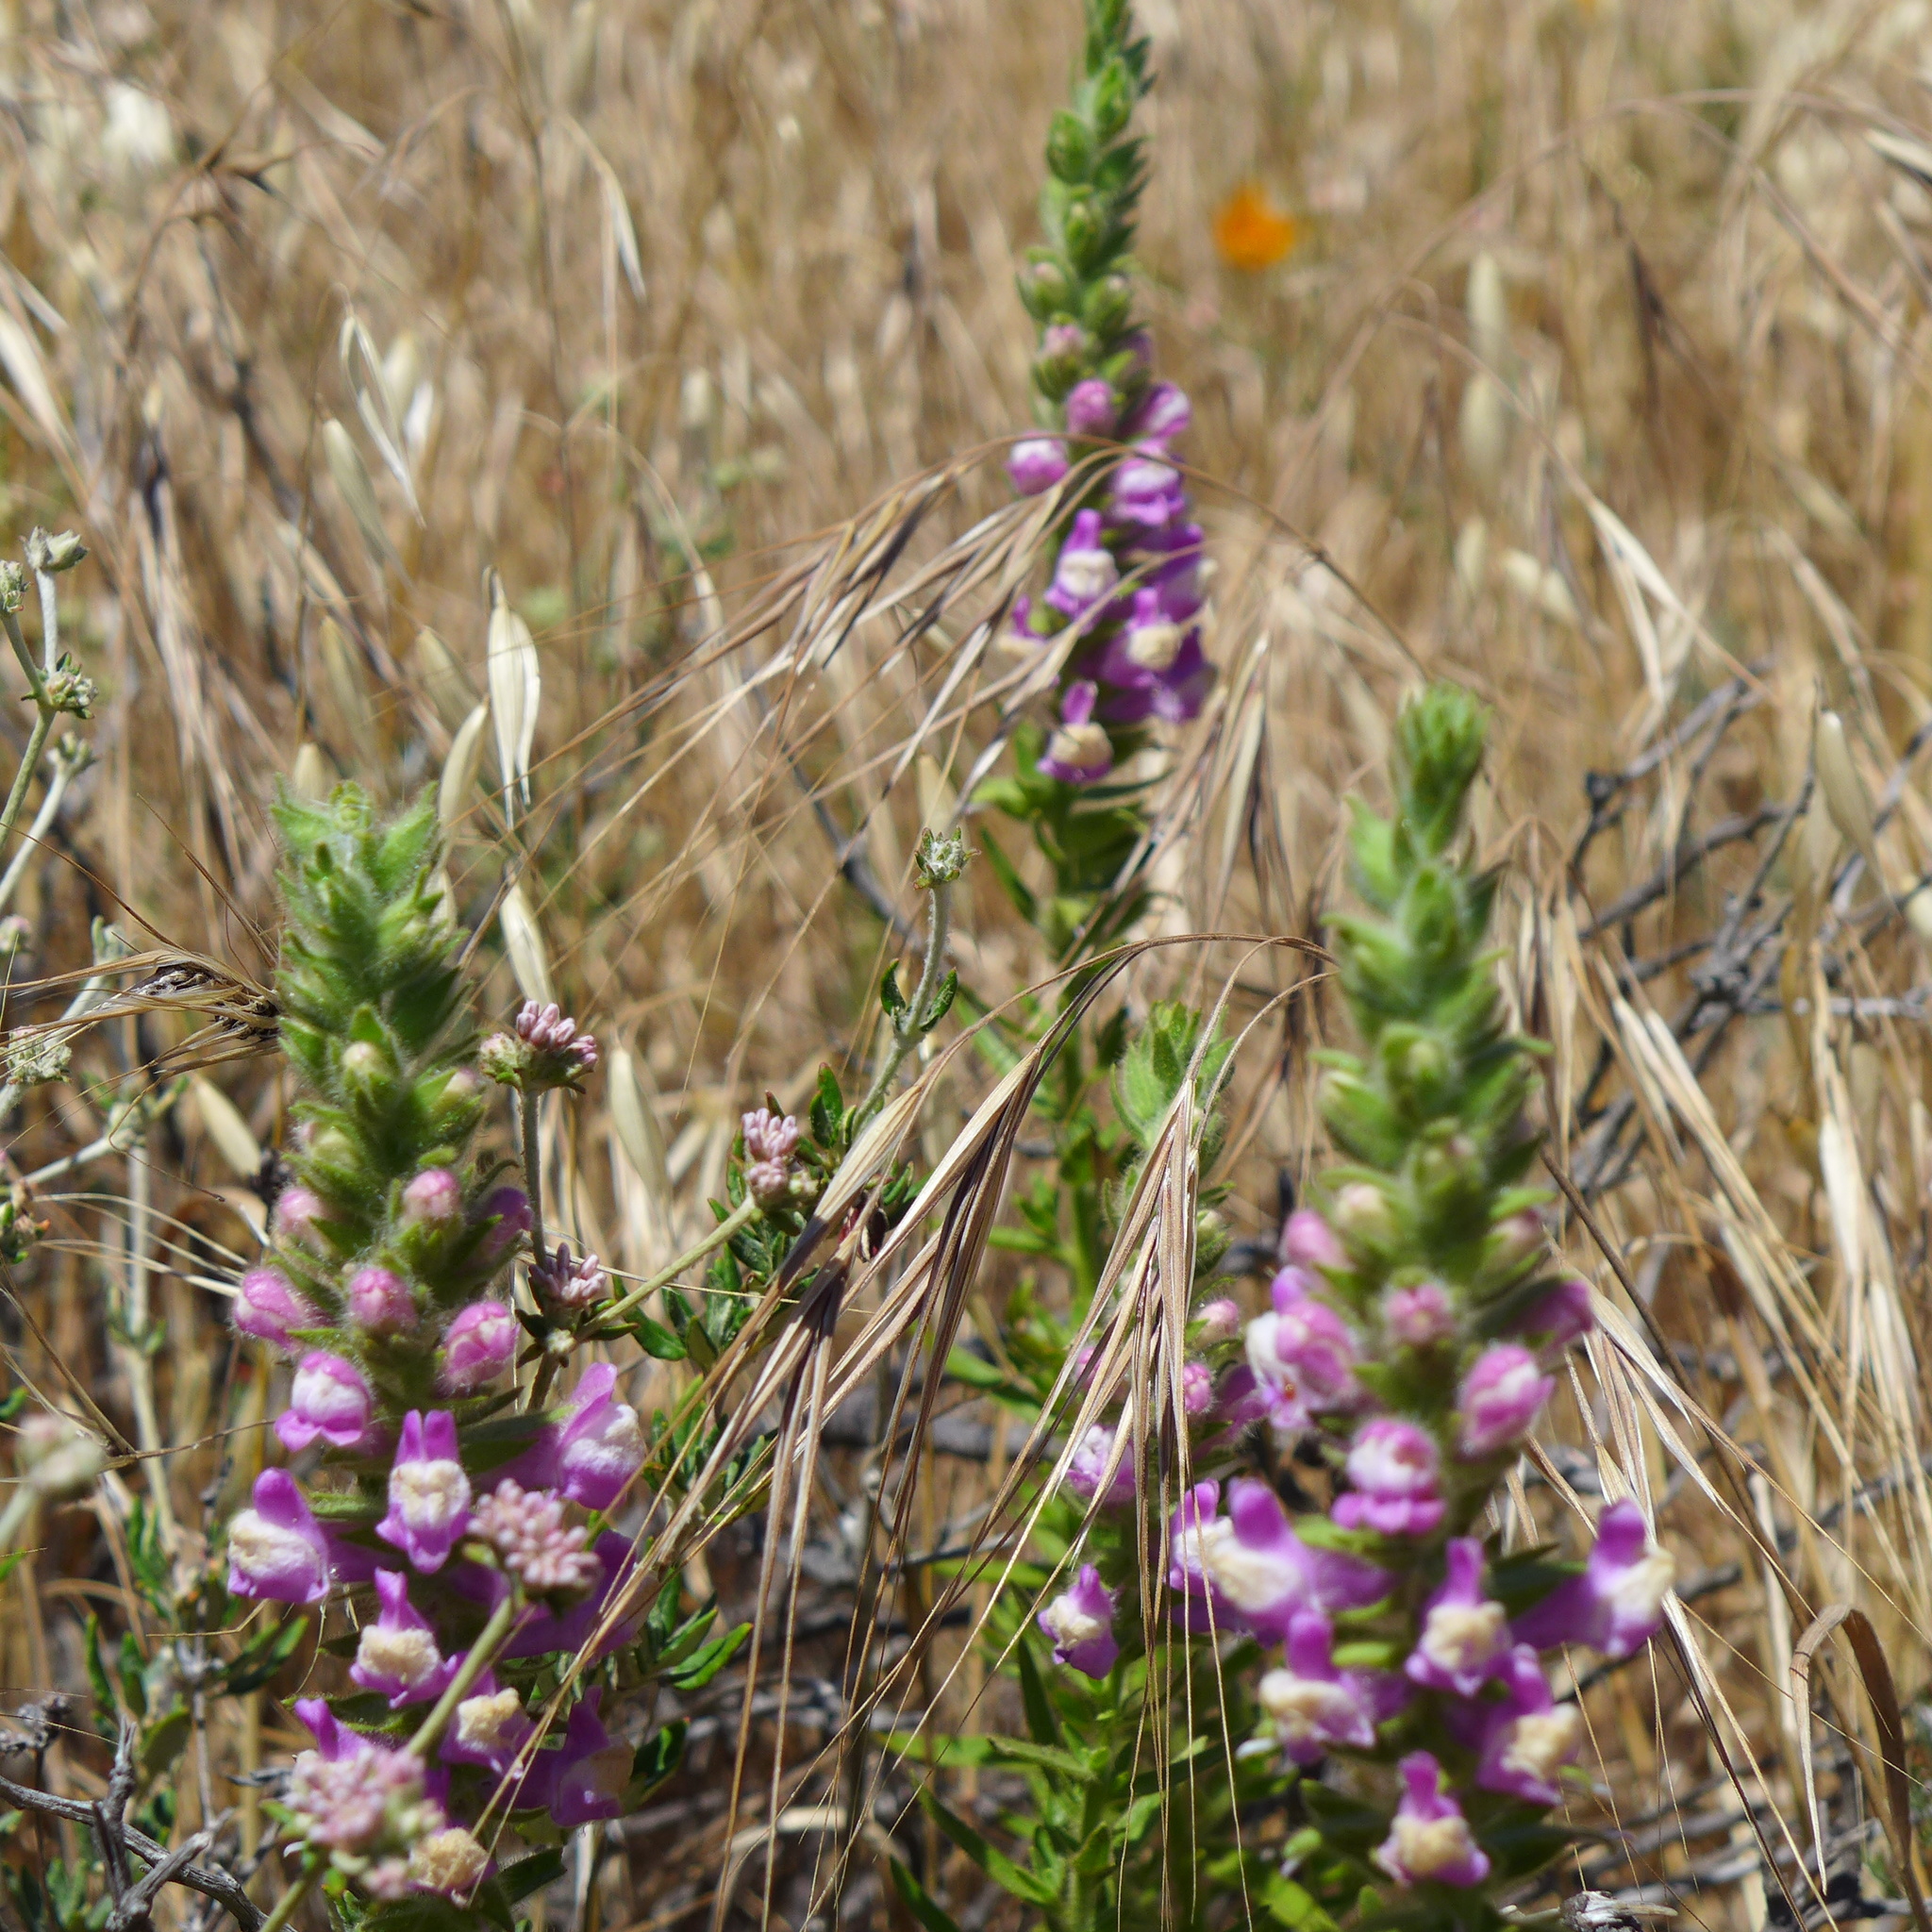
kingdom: Plantae
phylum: Tracheophyta
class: Magnoliopsida
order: Lamiales
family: Plantaginaceae
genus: Sairocarpus
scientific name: Sairocarpus multiflorus
